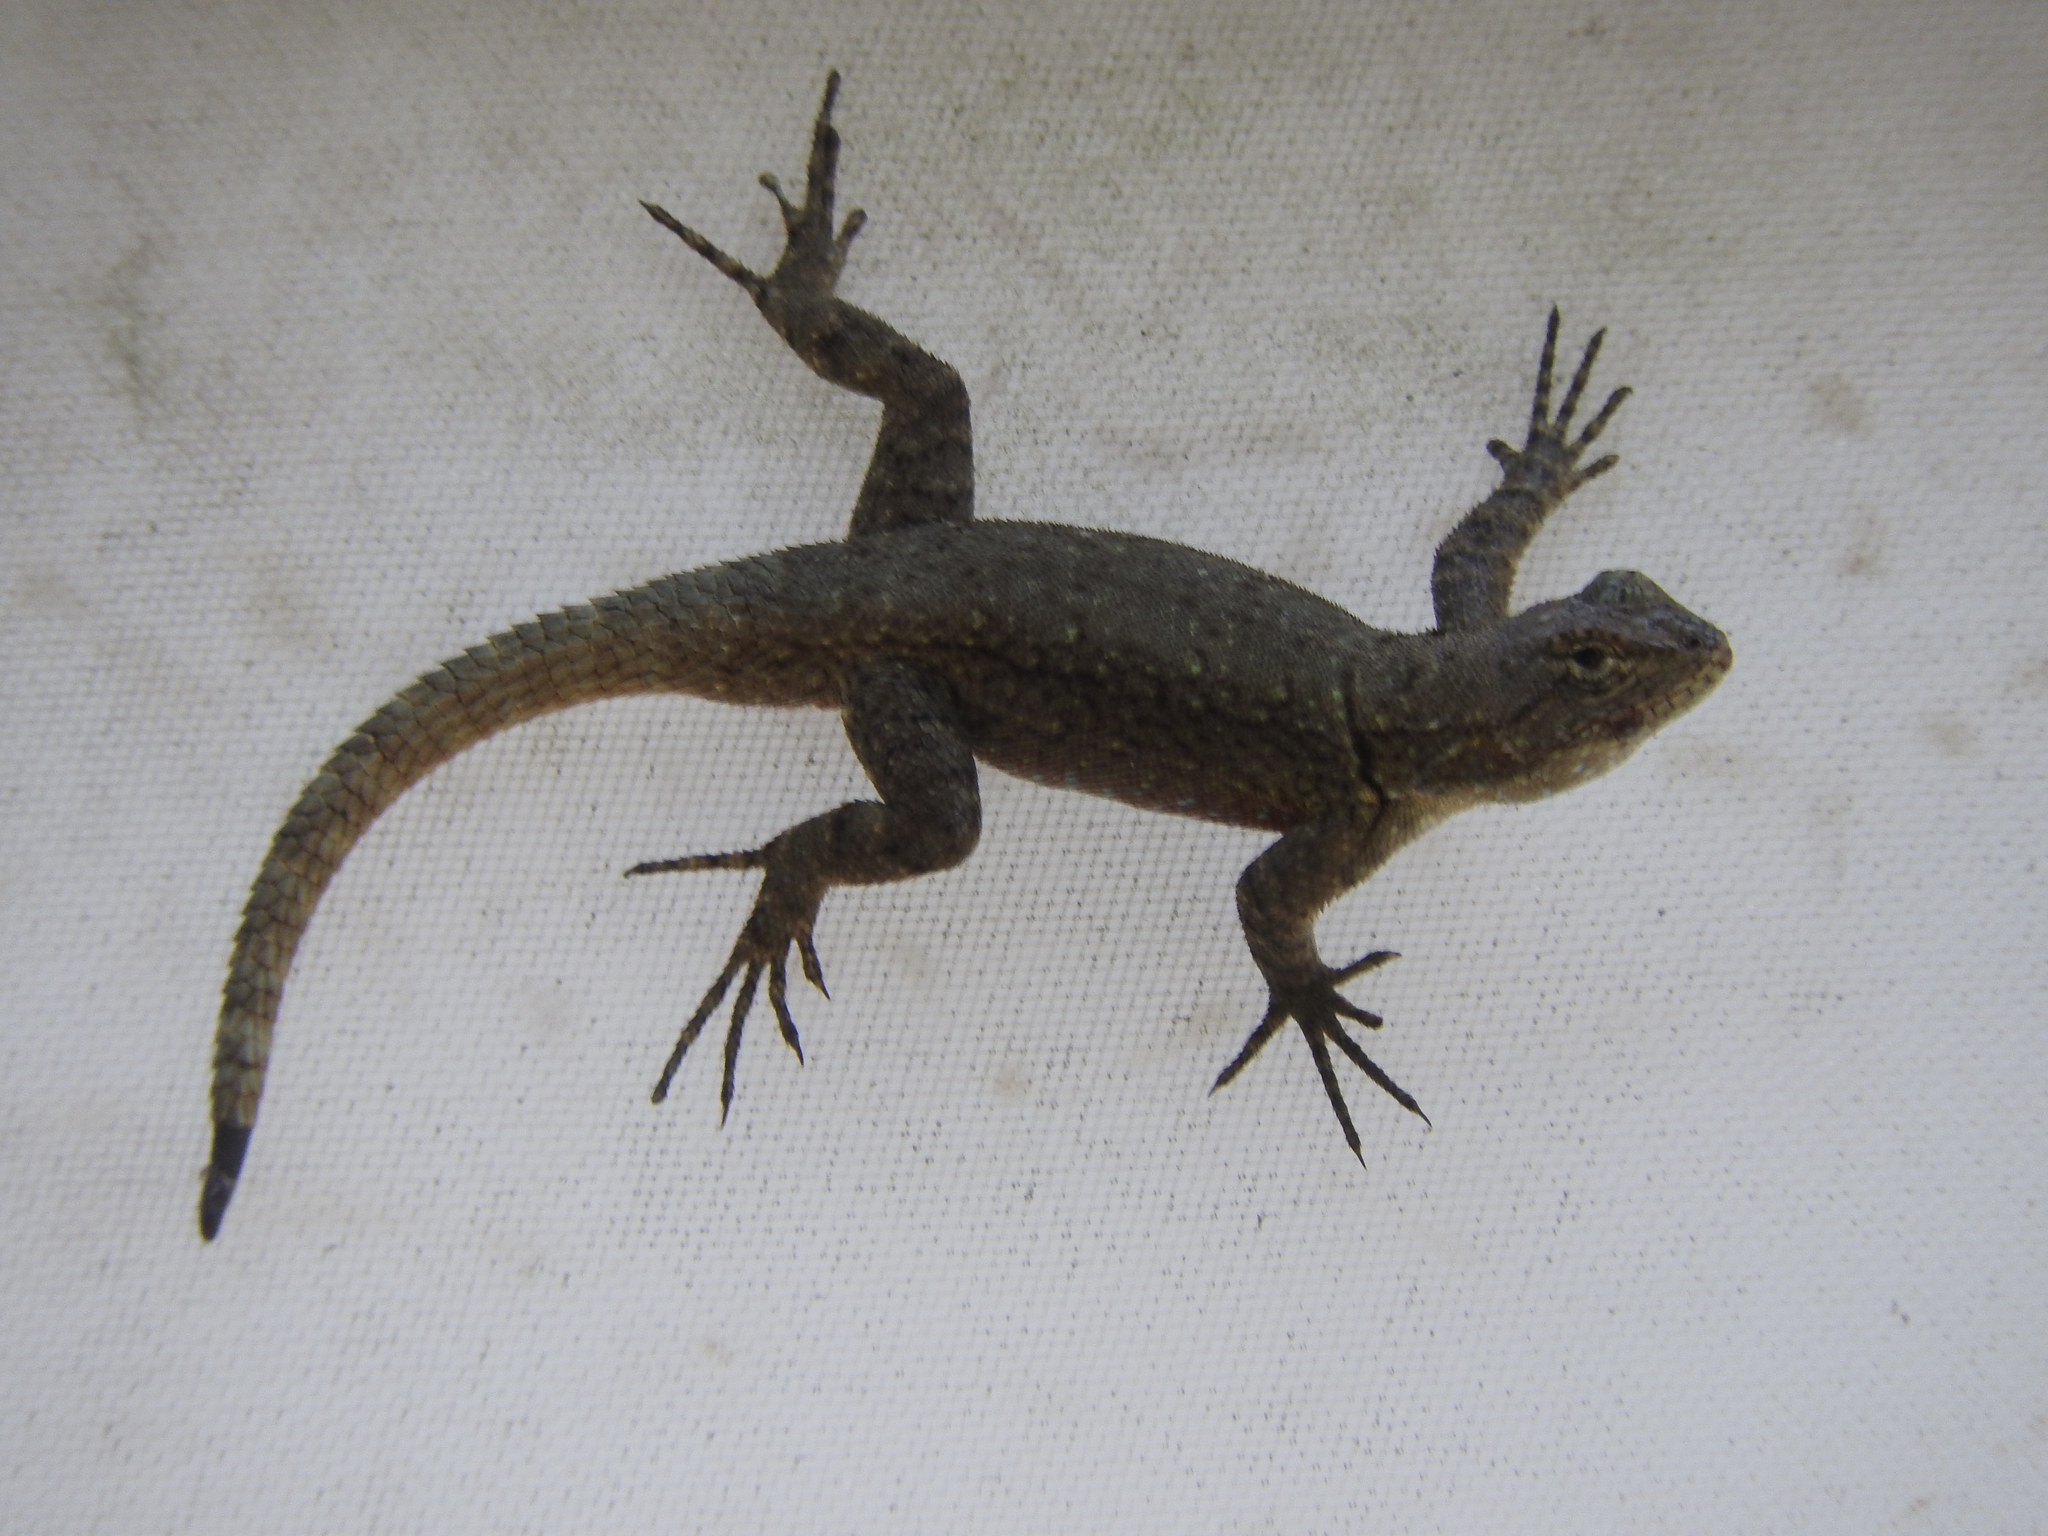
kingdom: Animalia
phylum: Chordata
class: Squamata
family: Phrynosomatidae
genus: Sceloporus
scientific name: Sceloporus grammicus
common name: Mesquite lizard
